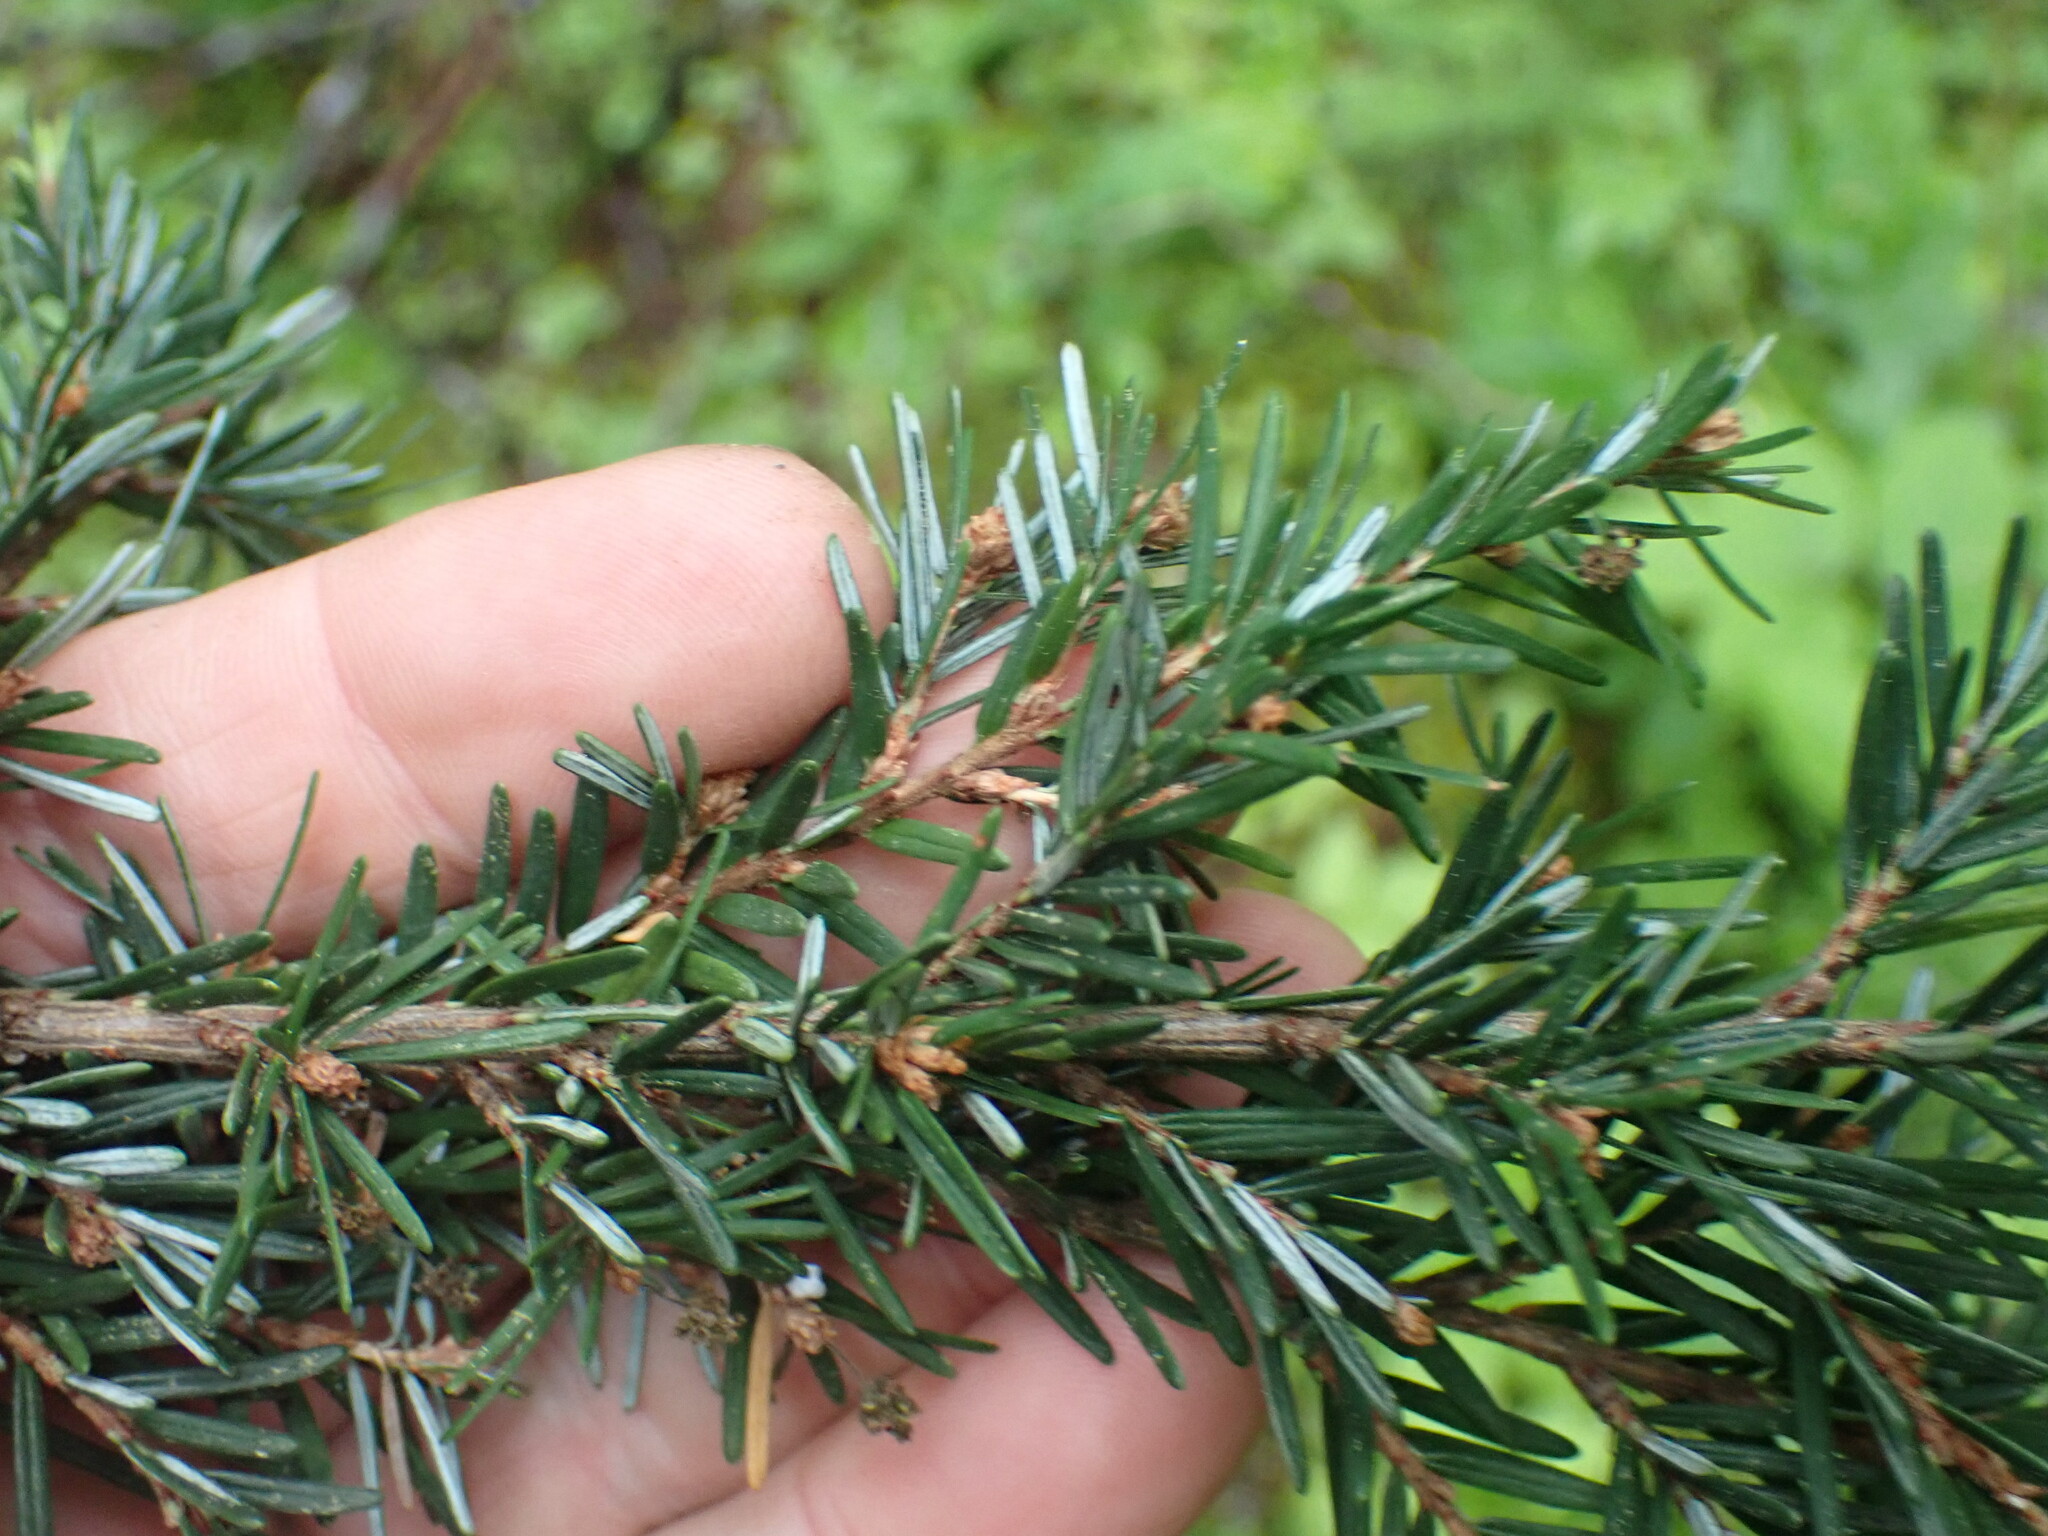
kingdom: Plantae
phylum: Tracheophyta
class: Pinopsida
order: Pinales
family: Pinaceae
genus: Tsuga
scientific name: Tsuga heterophylla
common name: Western hemlock
